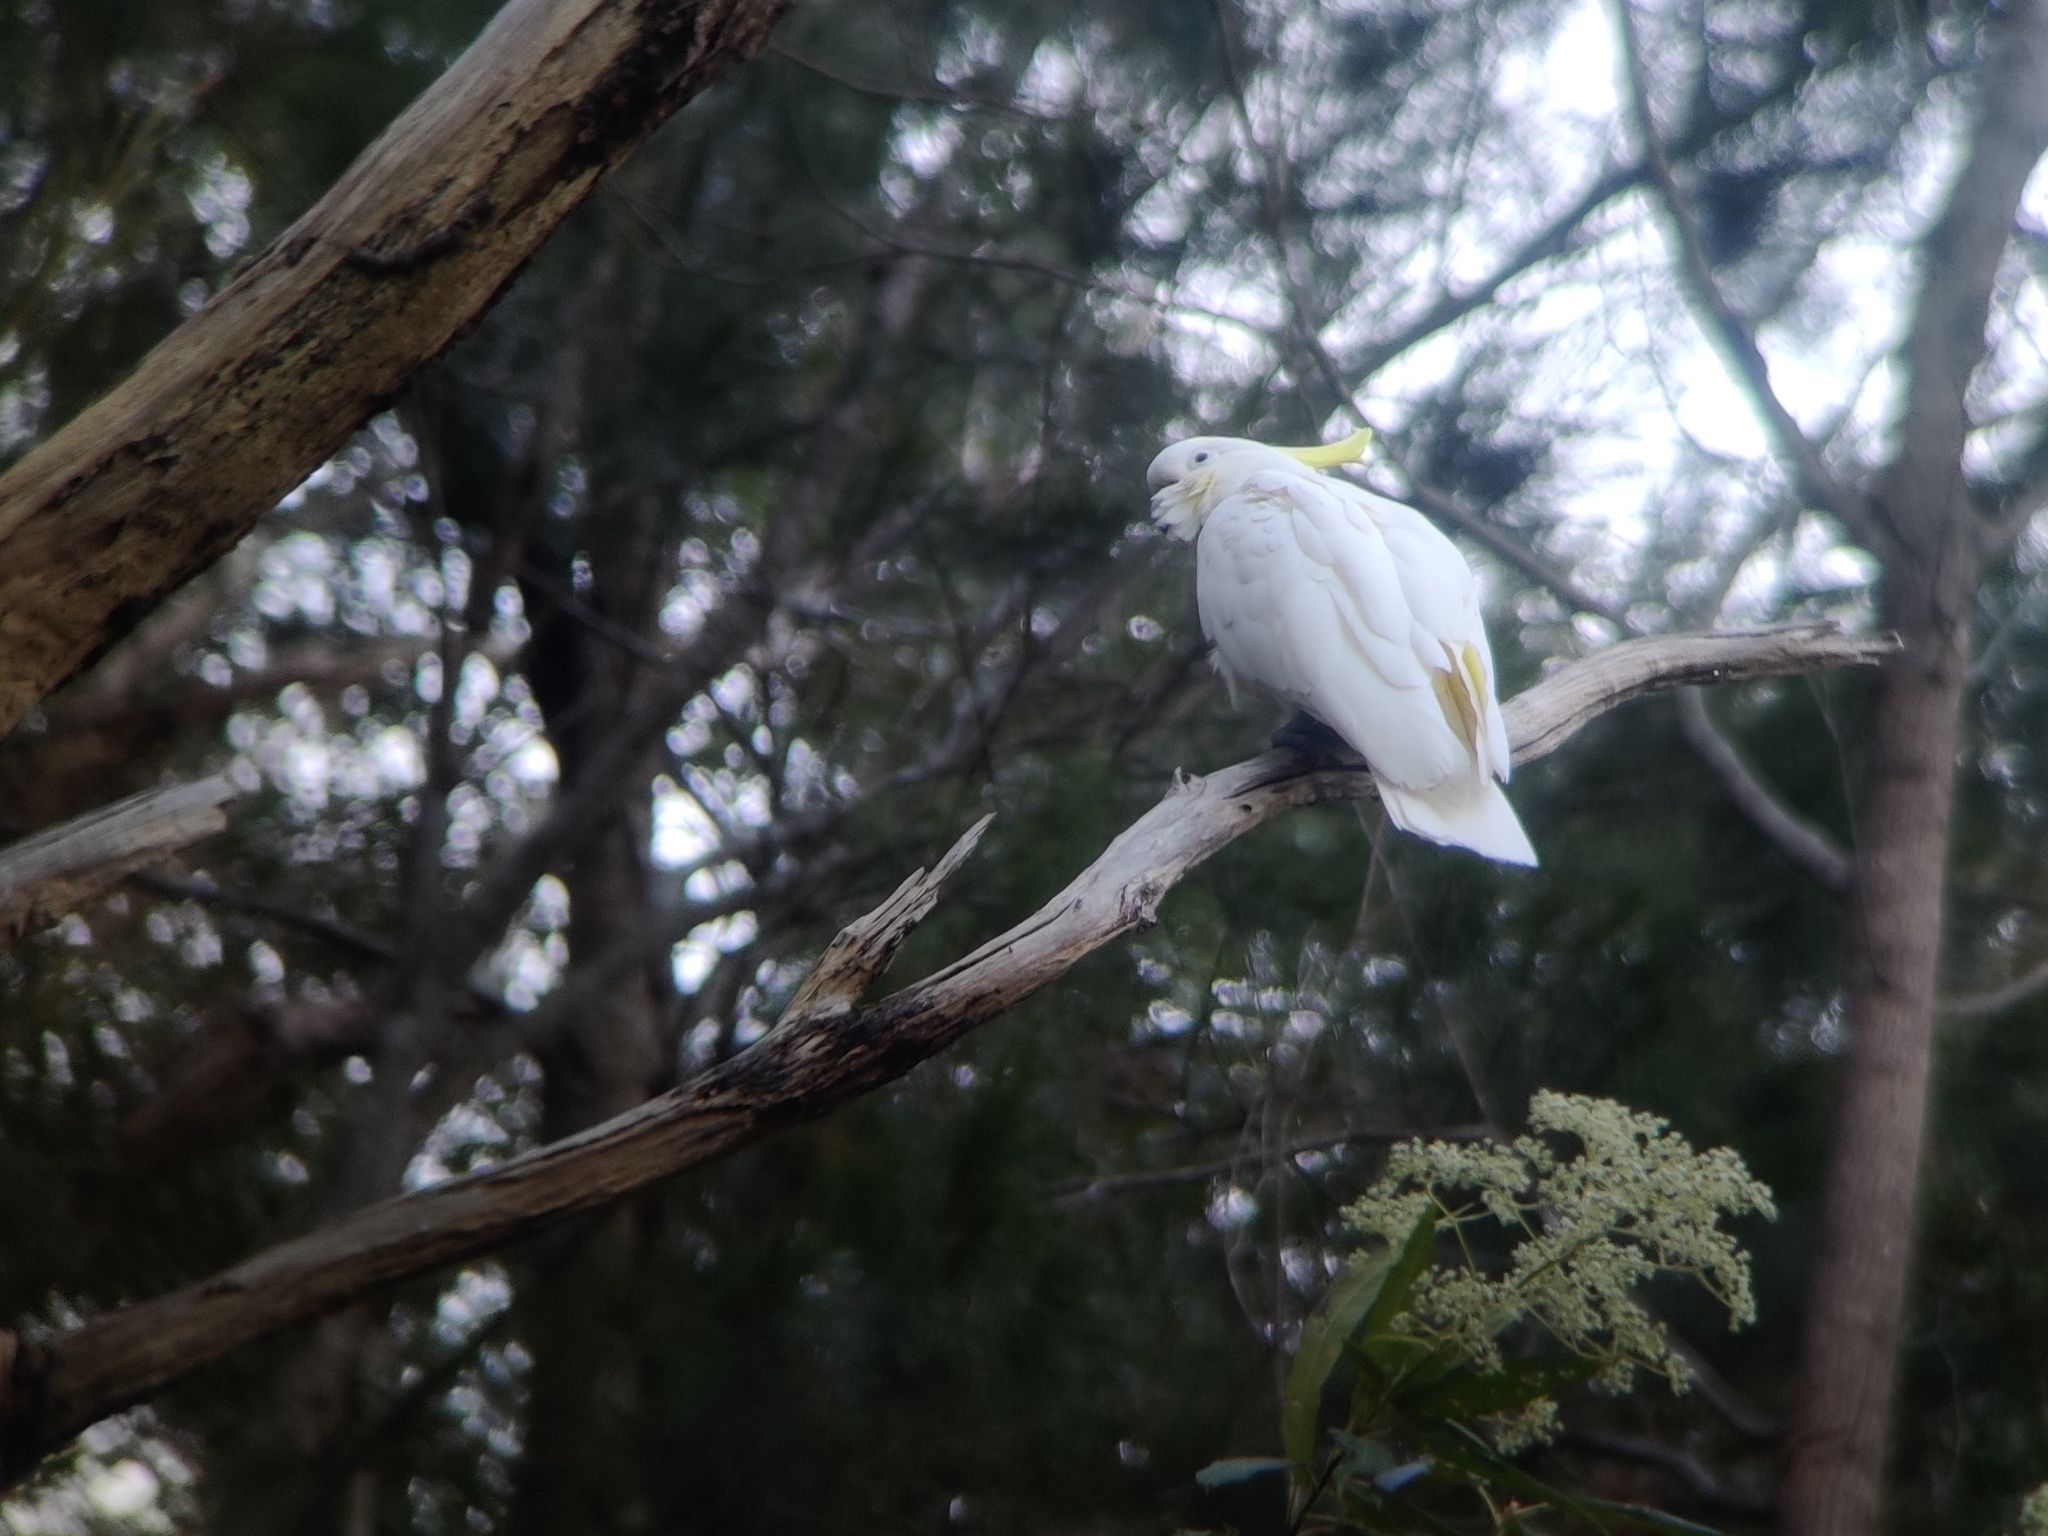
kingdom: Animalia
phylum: Chordata
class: Aves
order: Psittaciformes
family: Psittacidae
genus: Cacatua
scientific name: Cacatua galerita
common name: Sulphur-crested cockatoo
